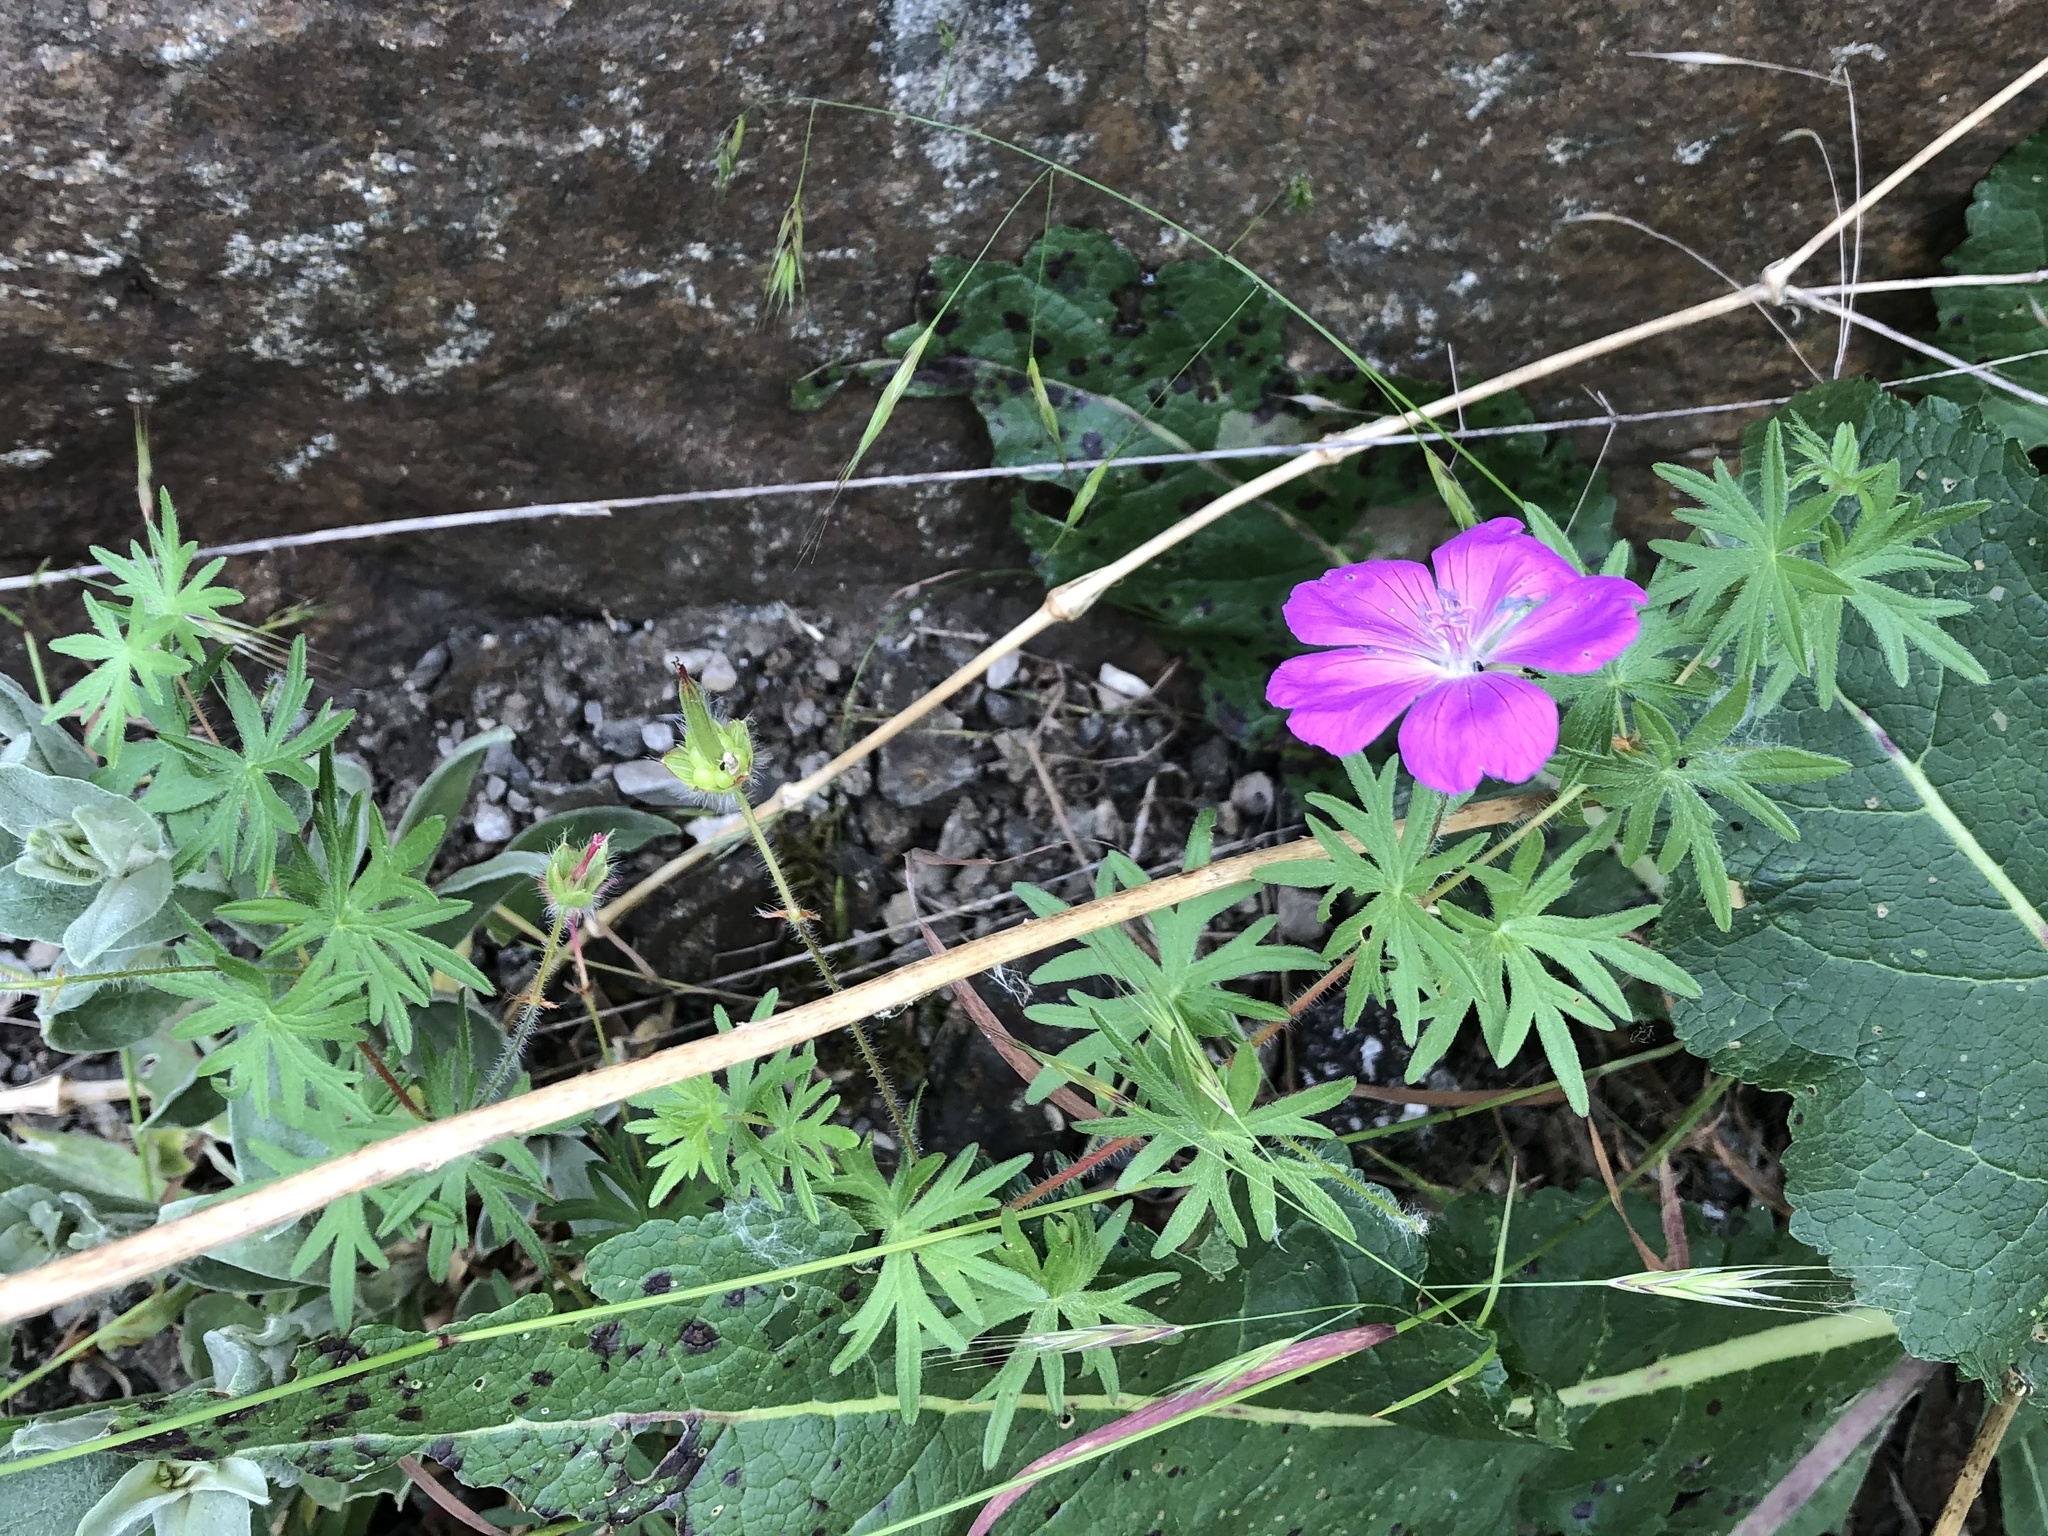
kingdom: Plantae
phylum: Tracheophyta
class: Magnoliopsida
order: Geraniales
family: Geraniaceae
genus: Geranium
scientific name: Geranium sanguineum
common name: Bloody crane's-bill
